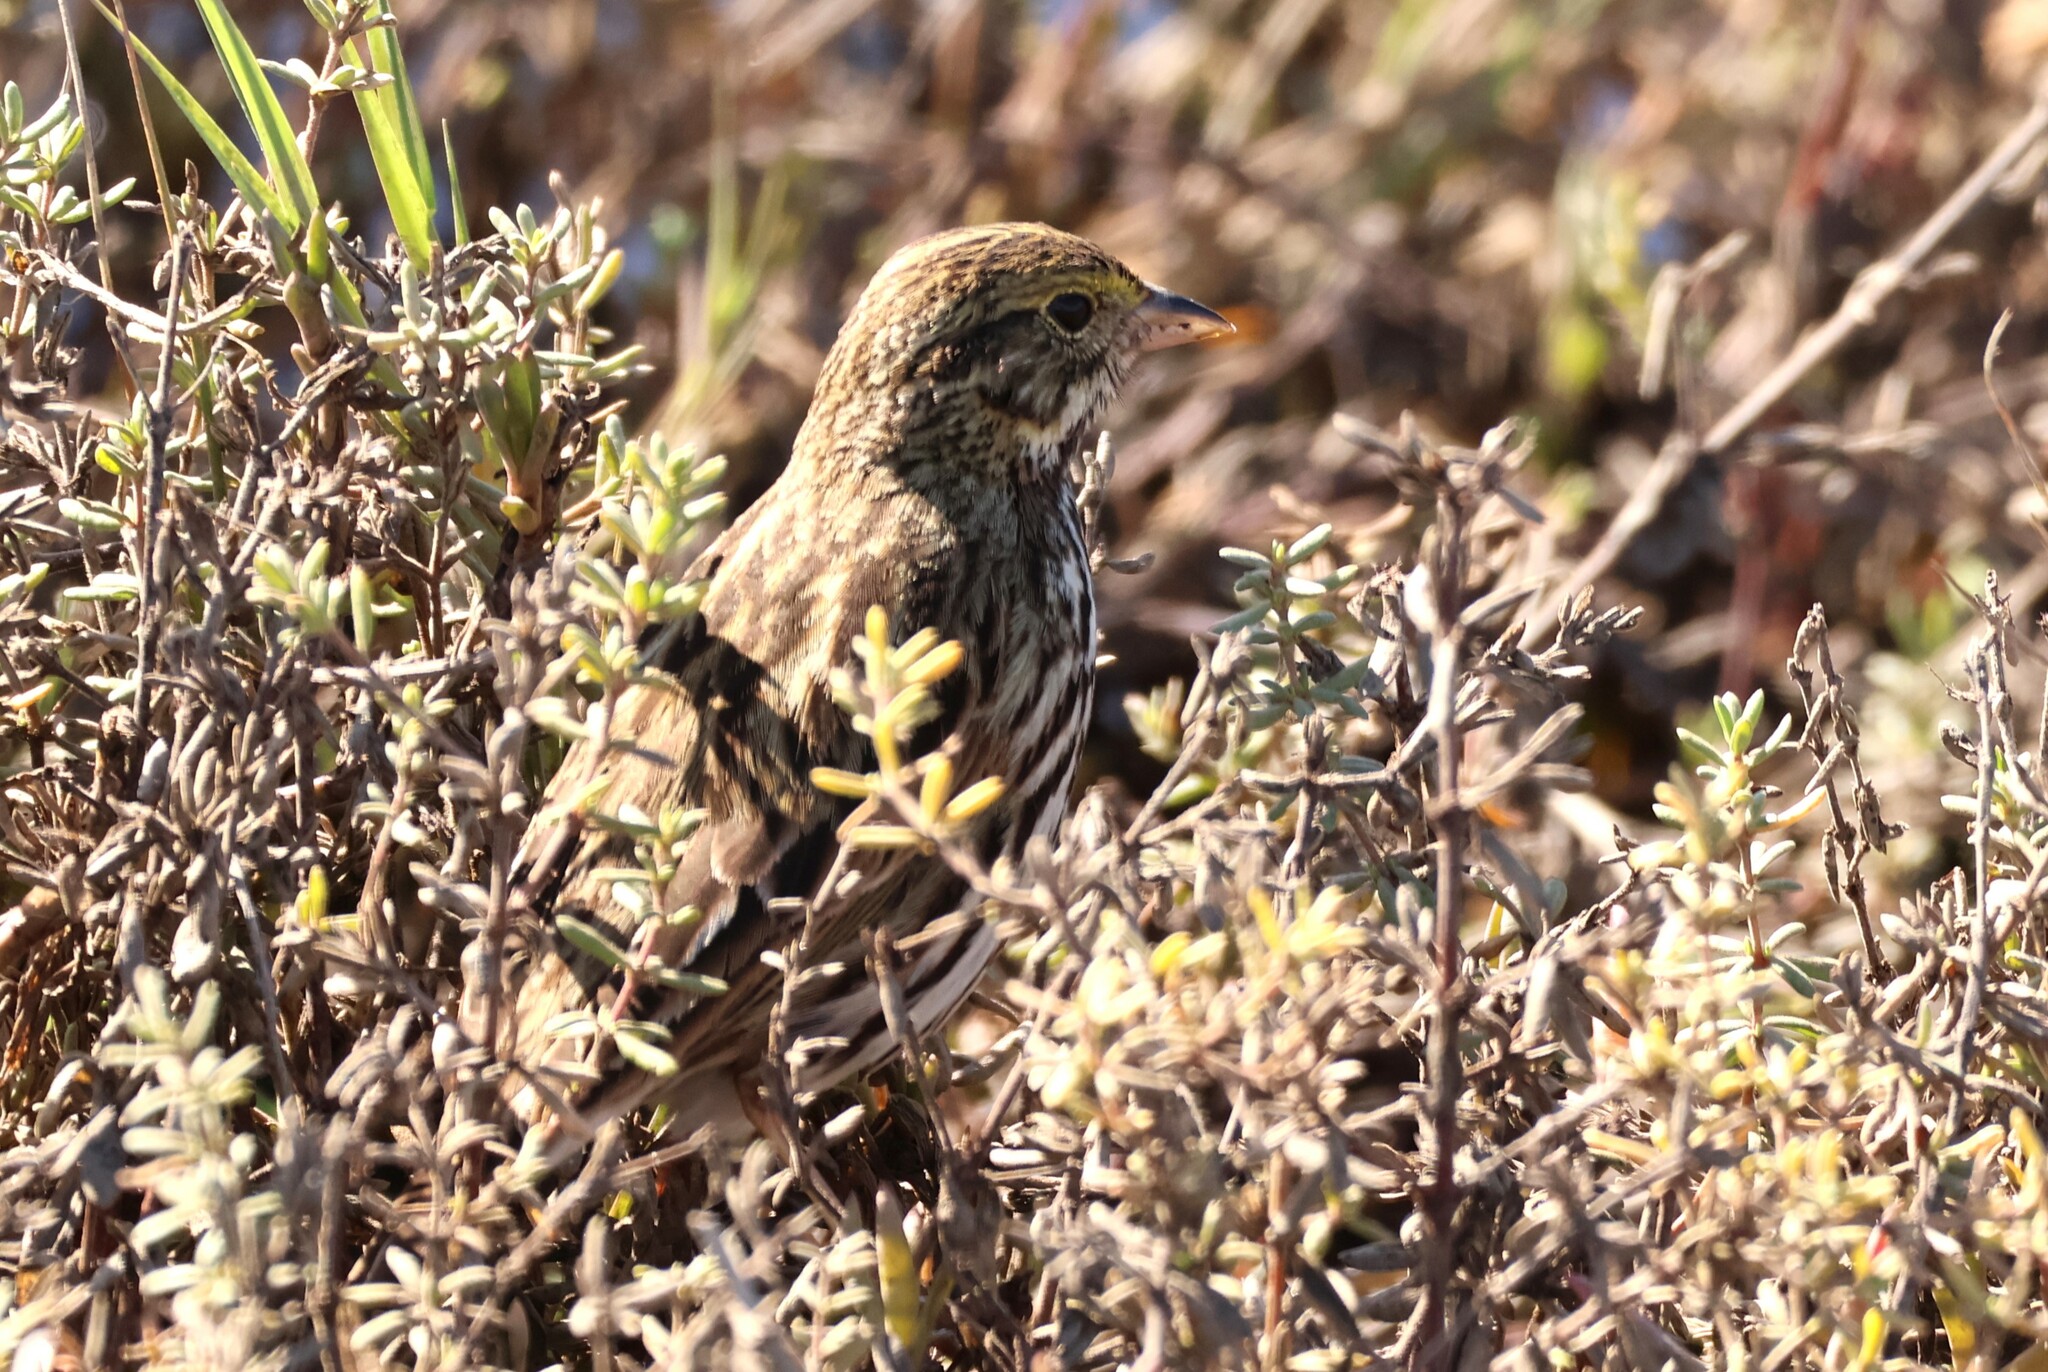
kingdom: Animalia
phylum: Chordata
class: Aves
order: Passeriformes
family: Passerellidae
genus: Passerculus
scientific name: Passerculus sandwichensis
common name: Savannah sparrow
